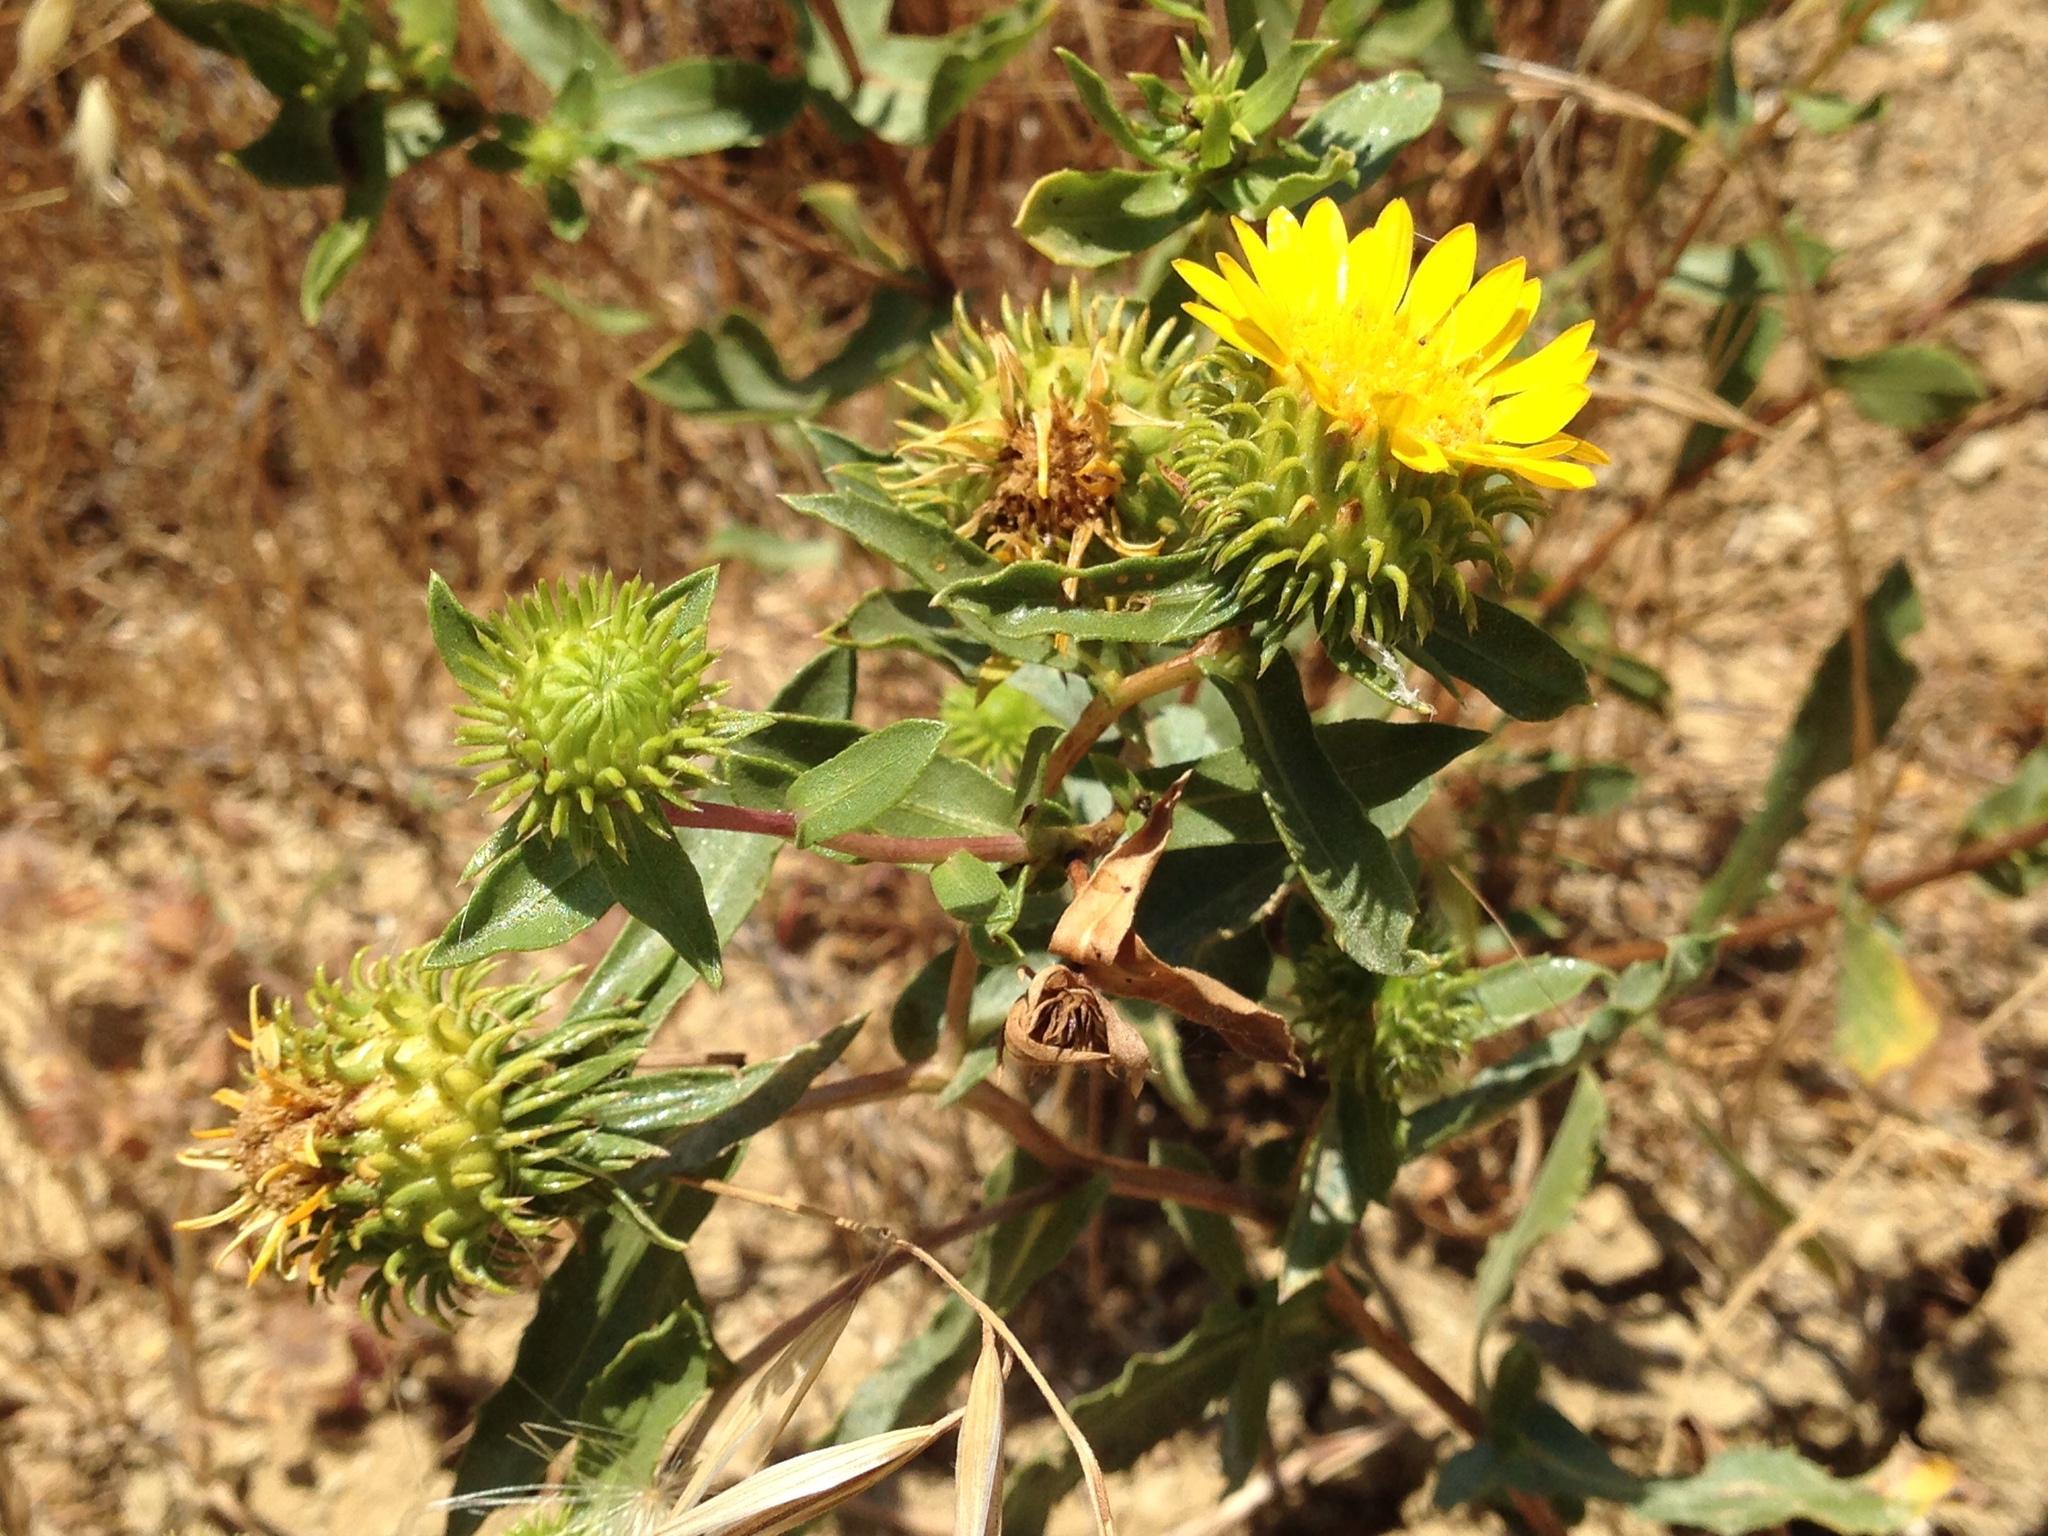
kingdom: Plantae
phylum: Tracheophyta
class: Magnoliopsida
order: Asterales
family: Asteraceae
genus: Grindelia
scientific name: Grindelia hirsutula
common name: Hairy gumweed
